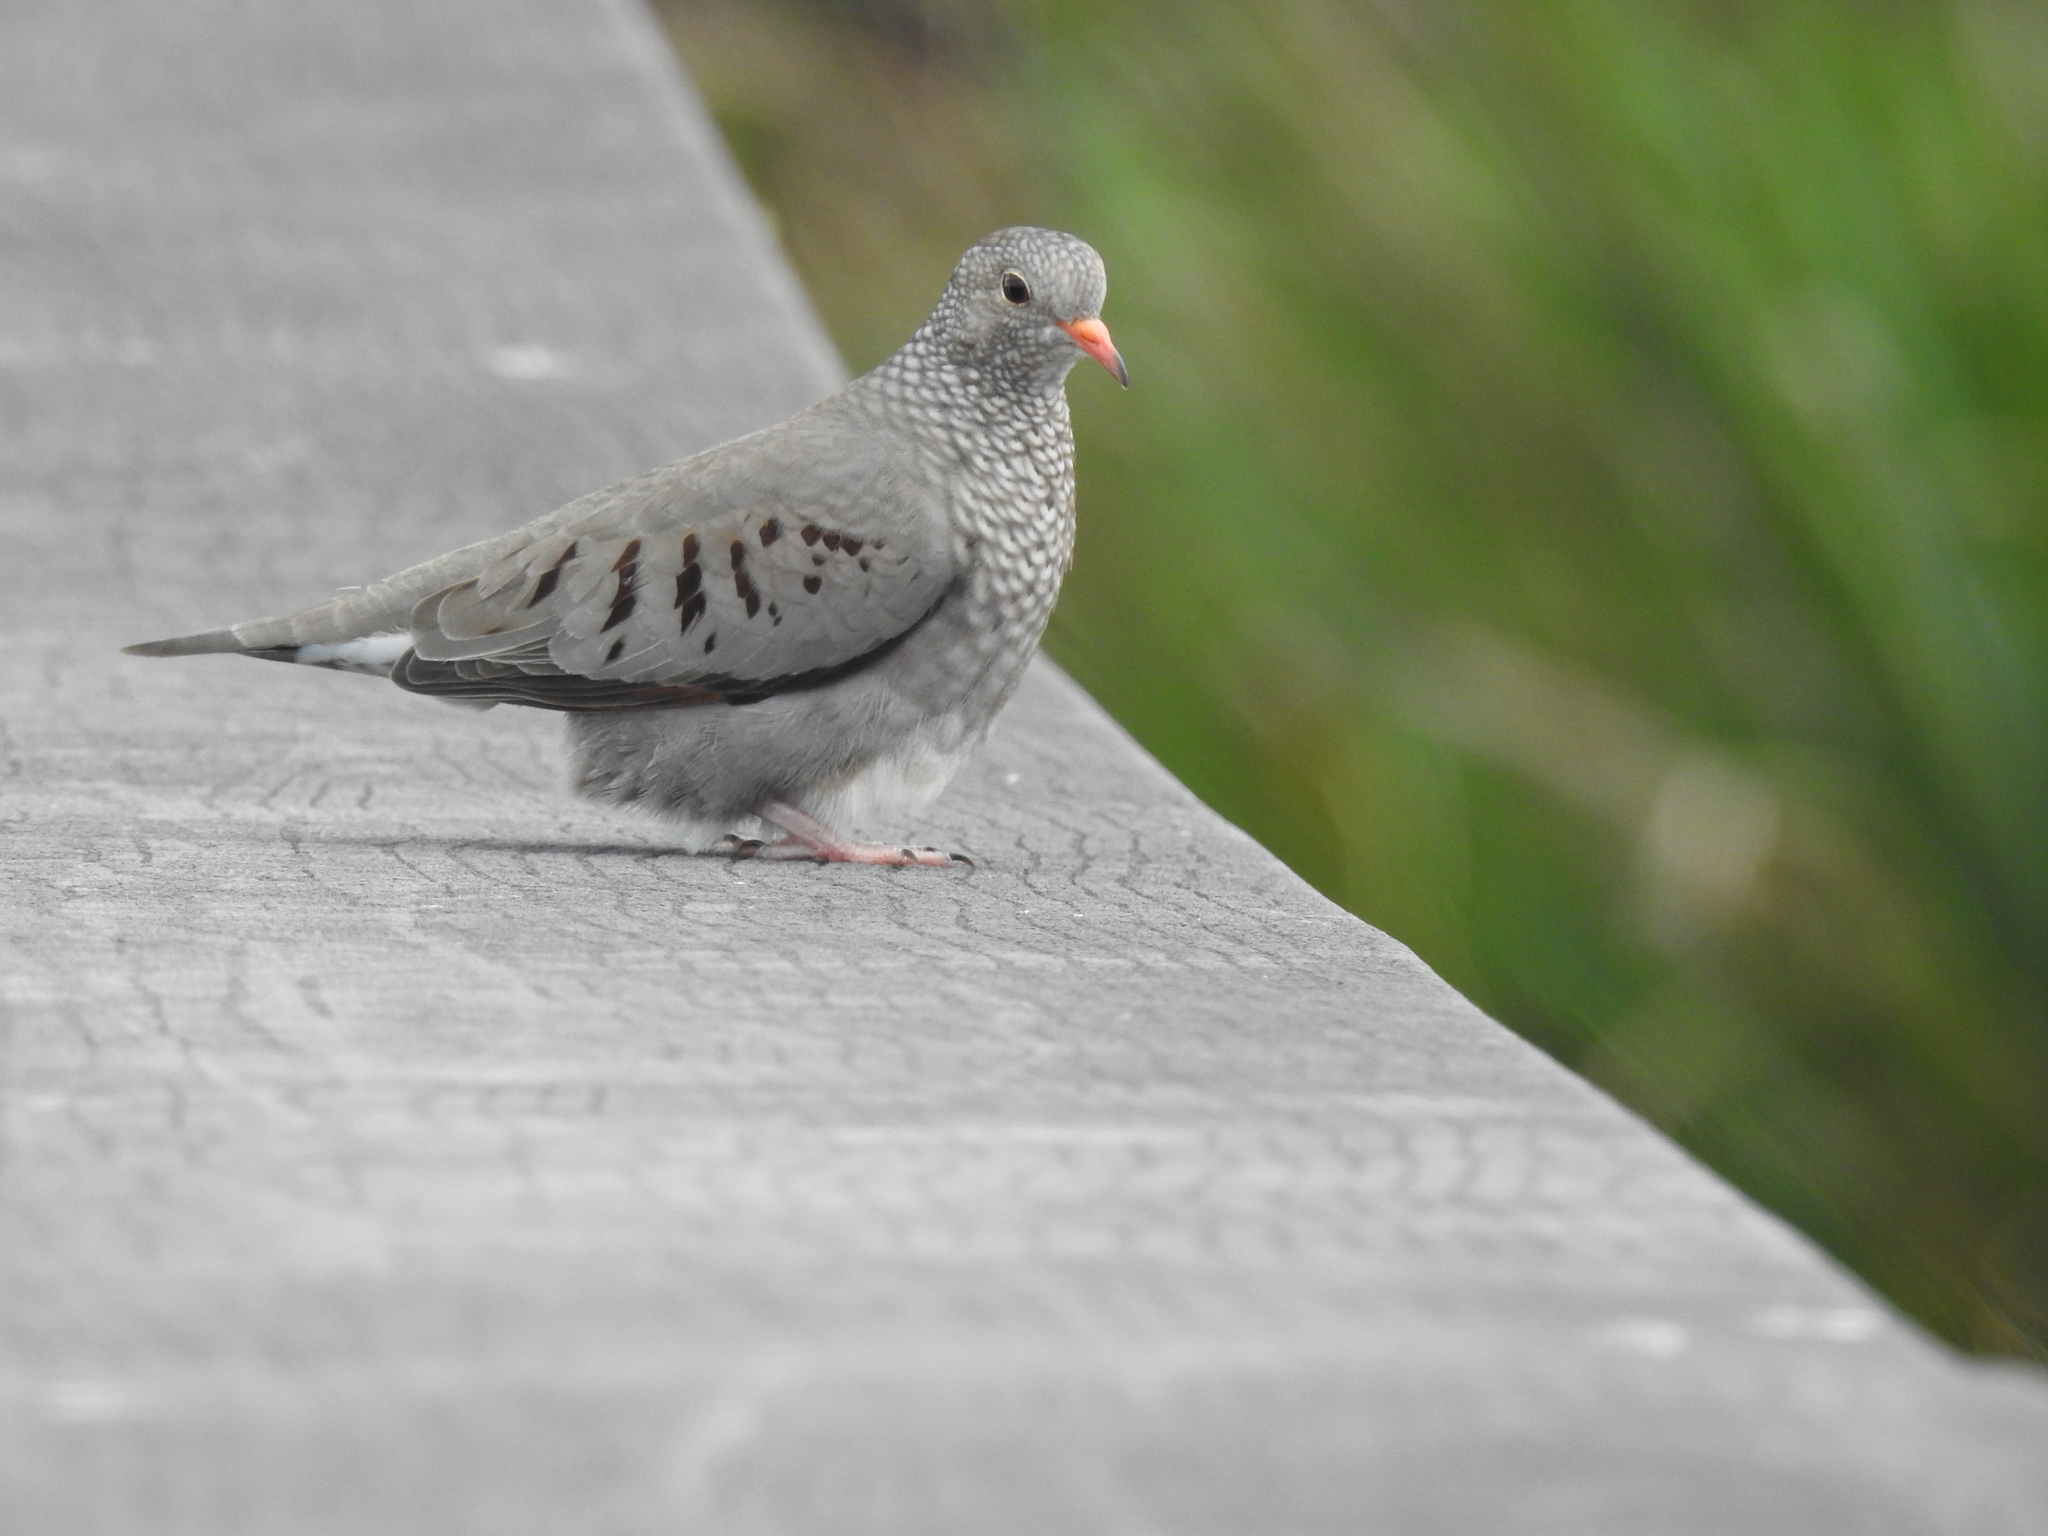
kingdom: Animalia
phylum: Chordata
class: Aves
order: Columbiformes
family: Columbidae
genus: Columbina
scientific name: Columbina passerina
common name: Common ground-dove
